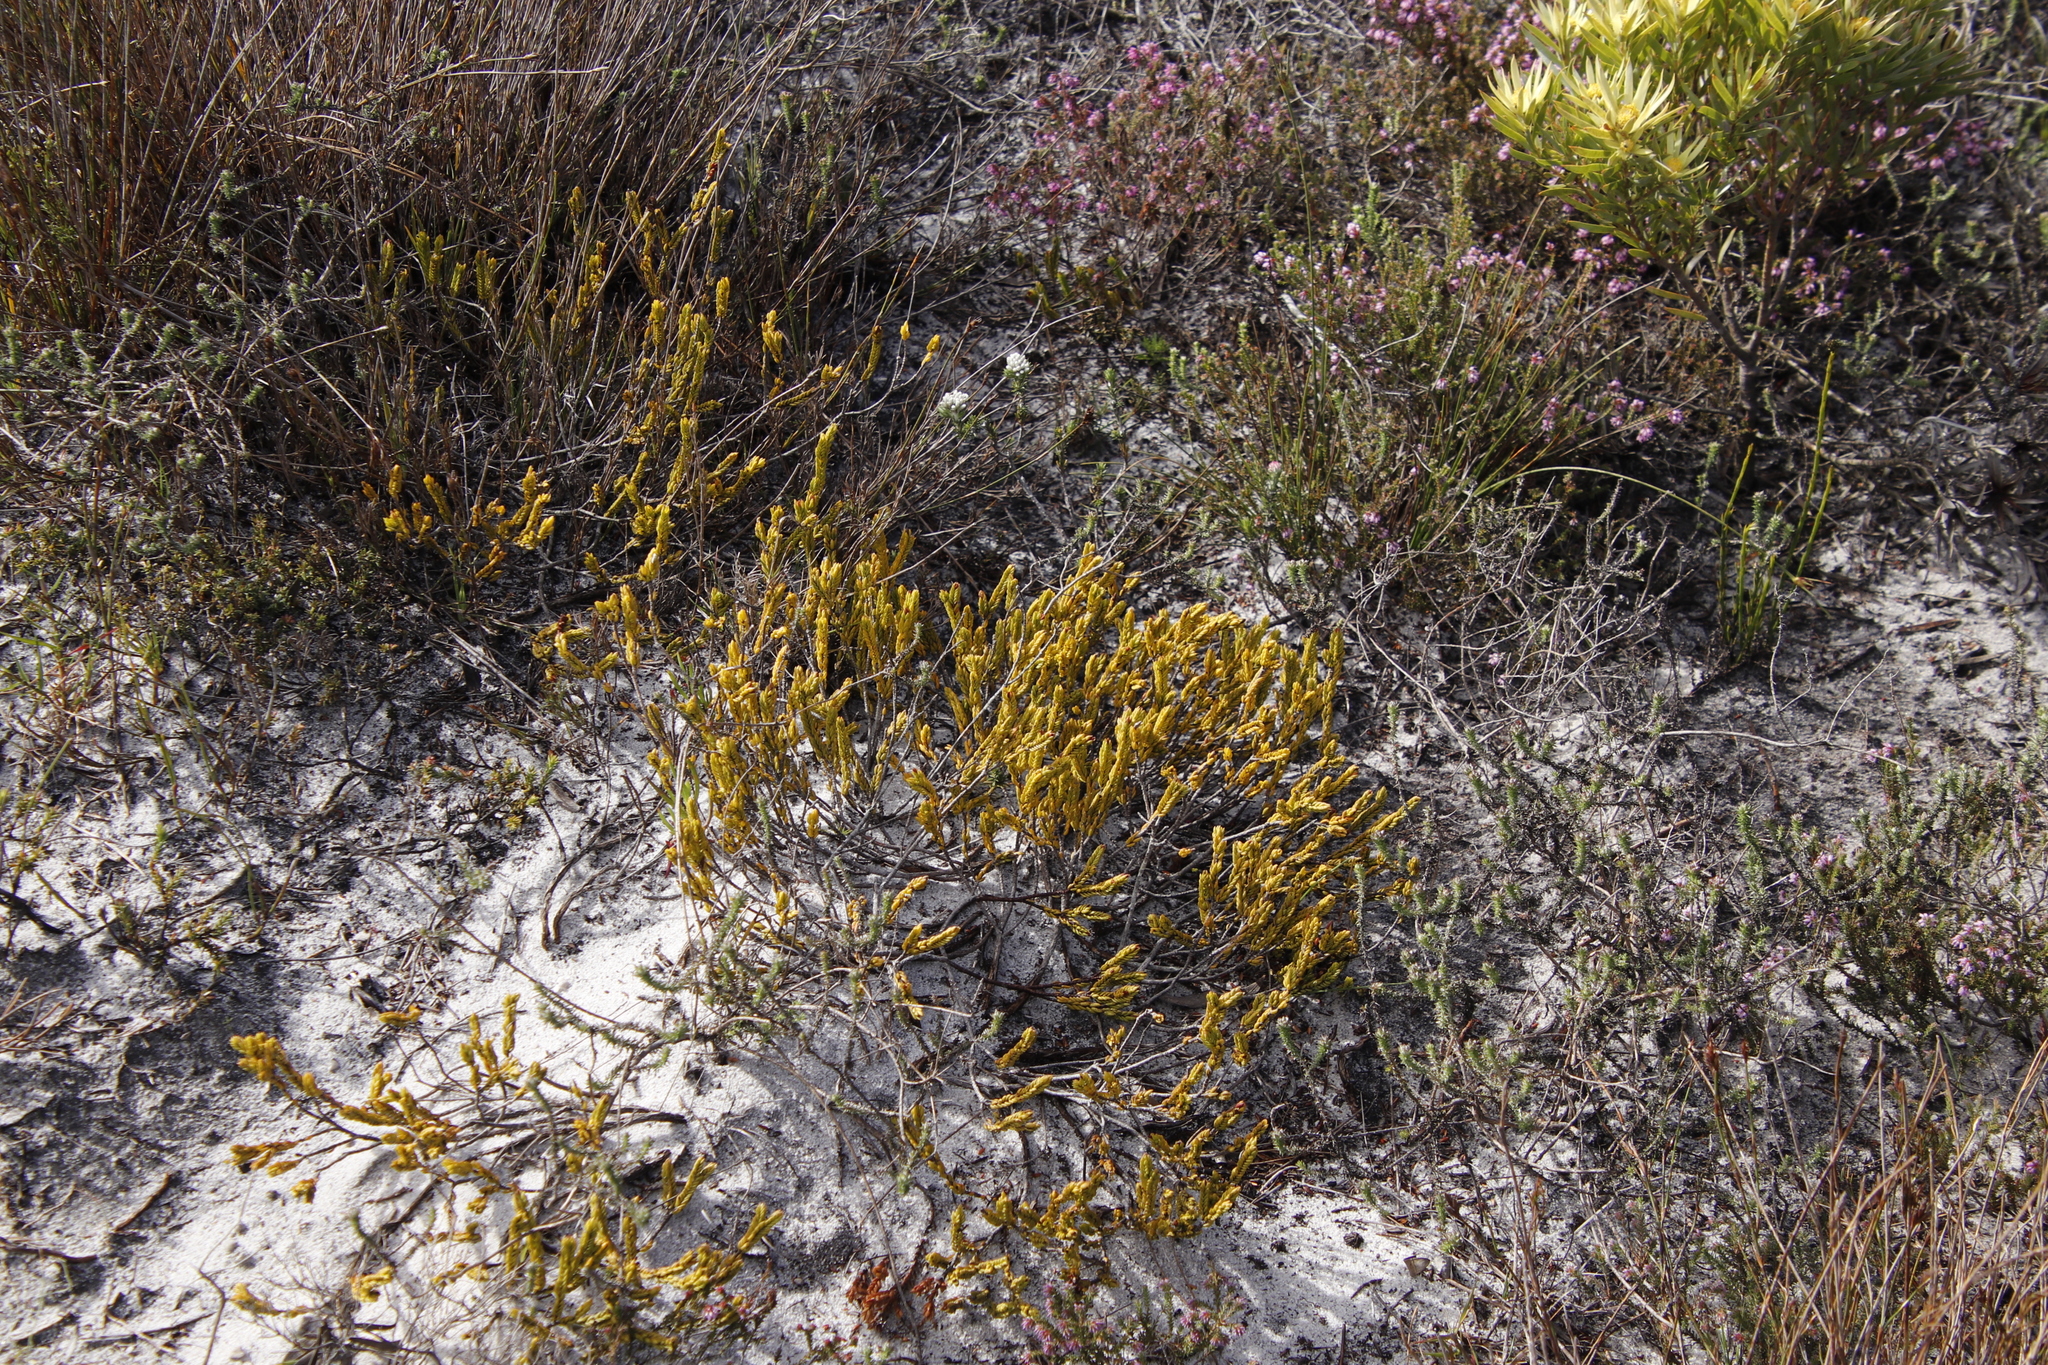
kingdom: Plantae
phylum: Tracheophyta
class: Magnoliopsida
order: Malvales
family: Thymelaeaceae
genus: Lachnaea
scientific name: Lachnaea grandiflora
